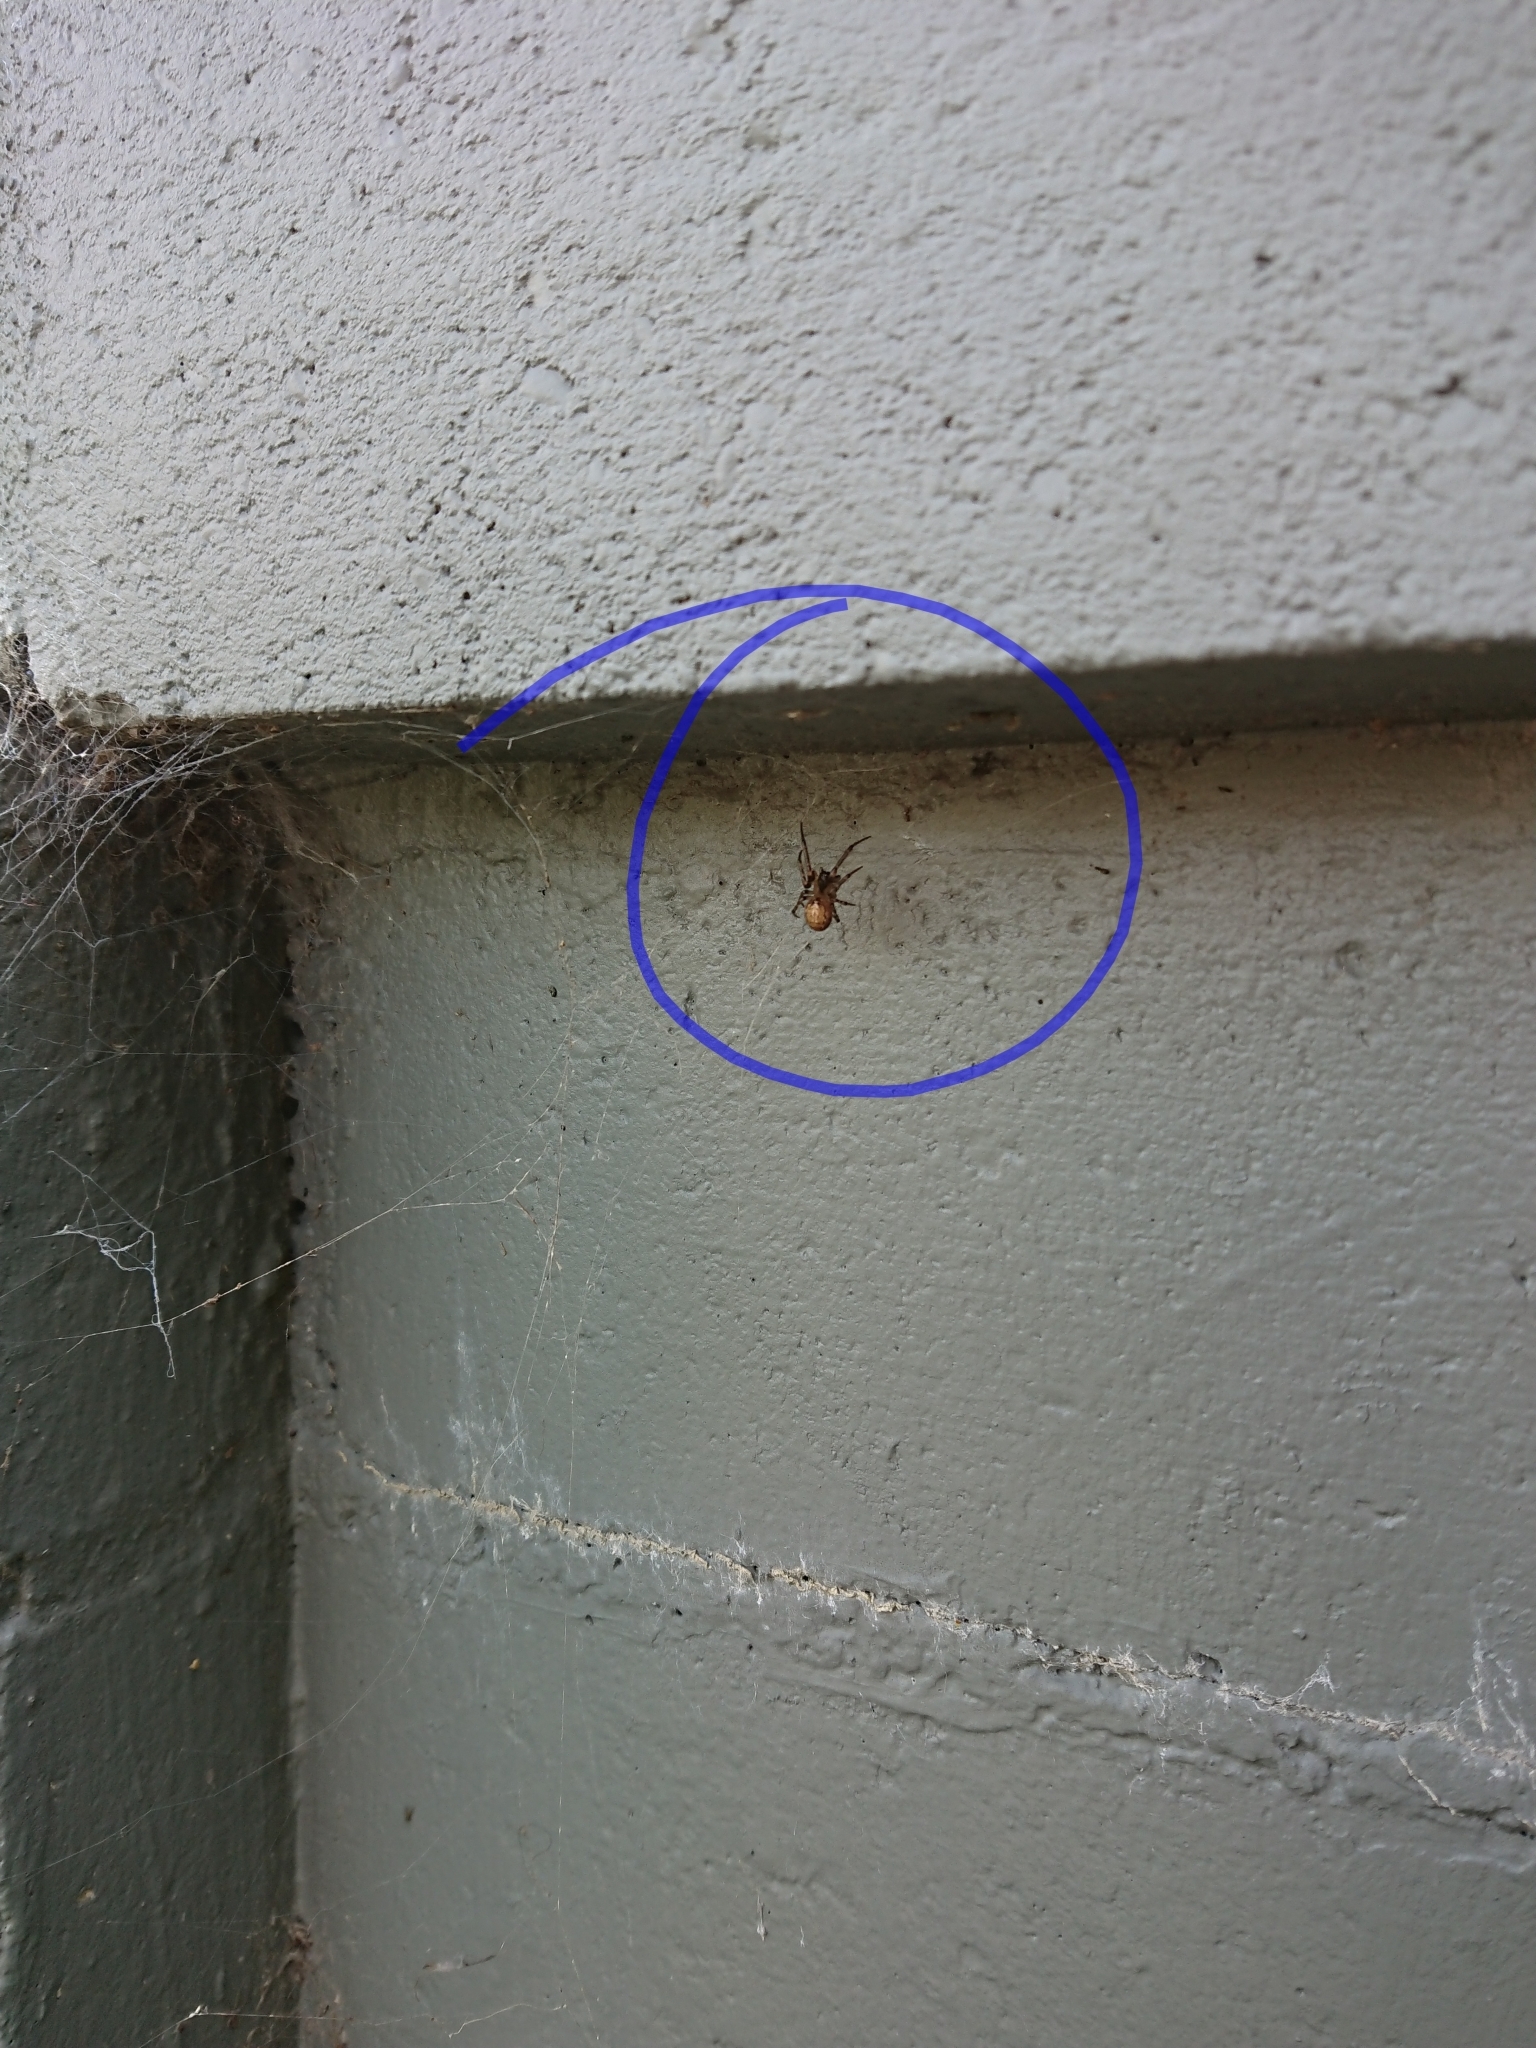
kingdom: Animalia
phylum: Arthropoda
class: Arachnida
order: Araneae
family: Araneidae
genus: Zygiella
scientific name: Zygiella x-notata
